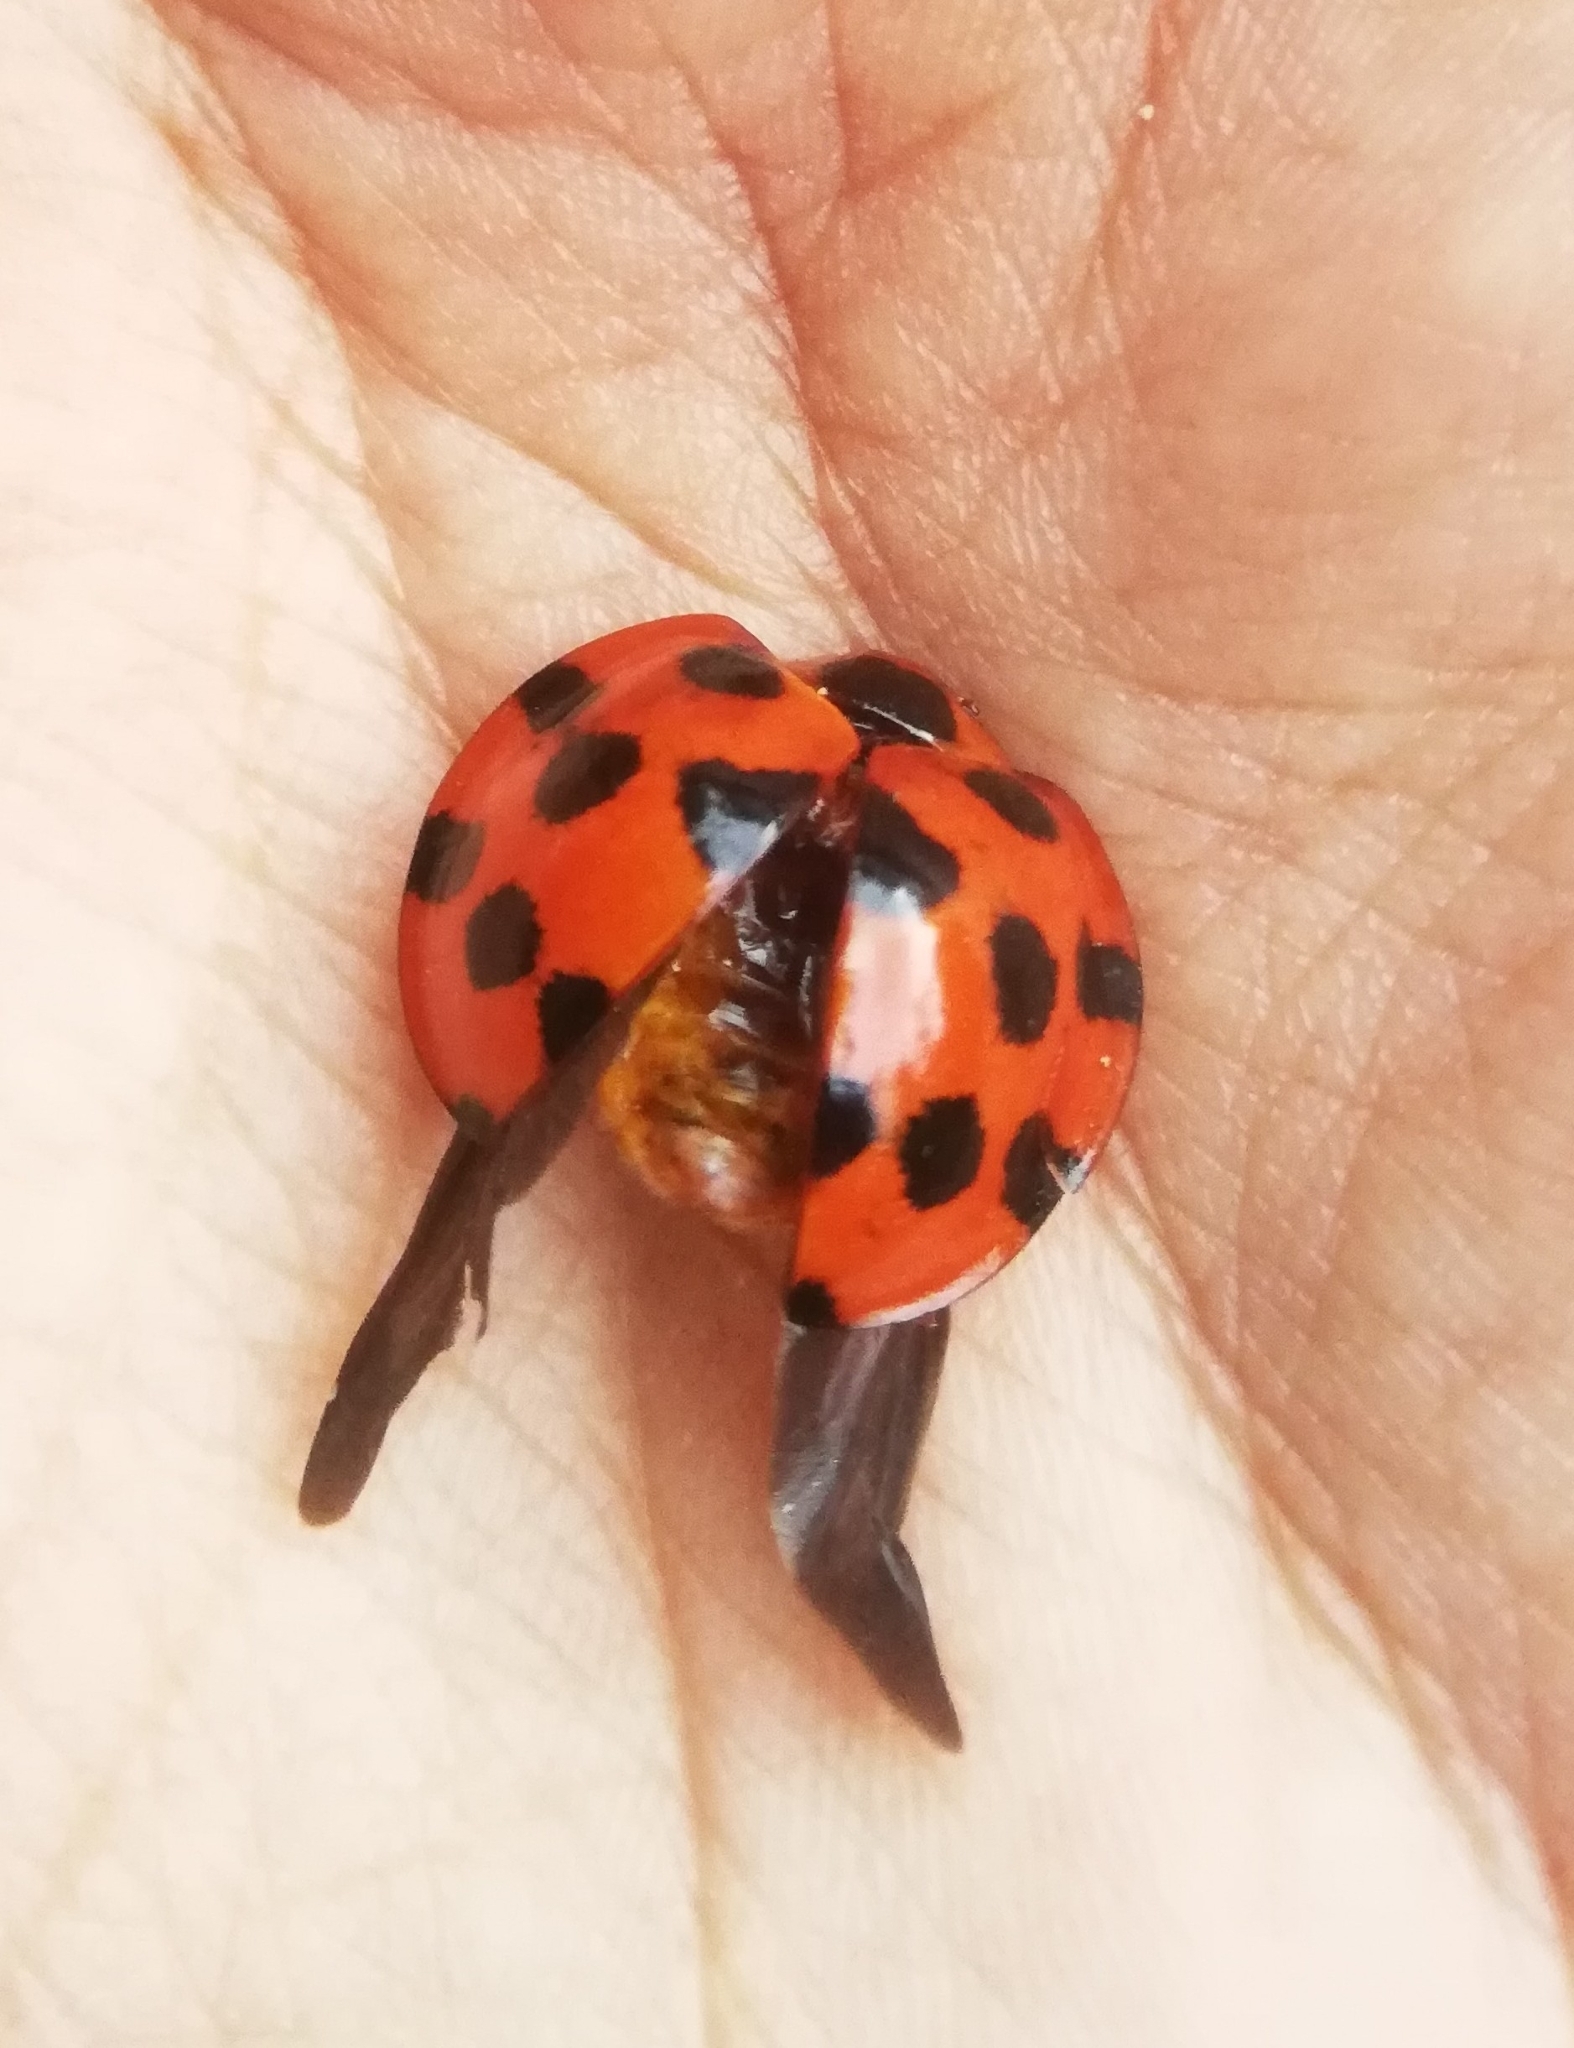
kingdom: Animalia
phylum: Arthropoda
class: Insecta
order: Coleoptera
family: Coccinellidae
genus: Synonycha
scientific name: Synonycha grandis
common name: Lady beetle
